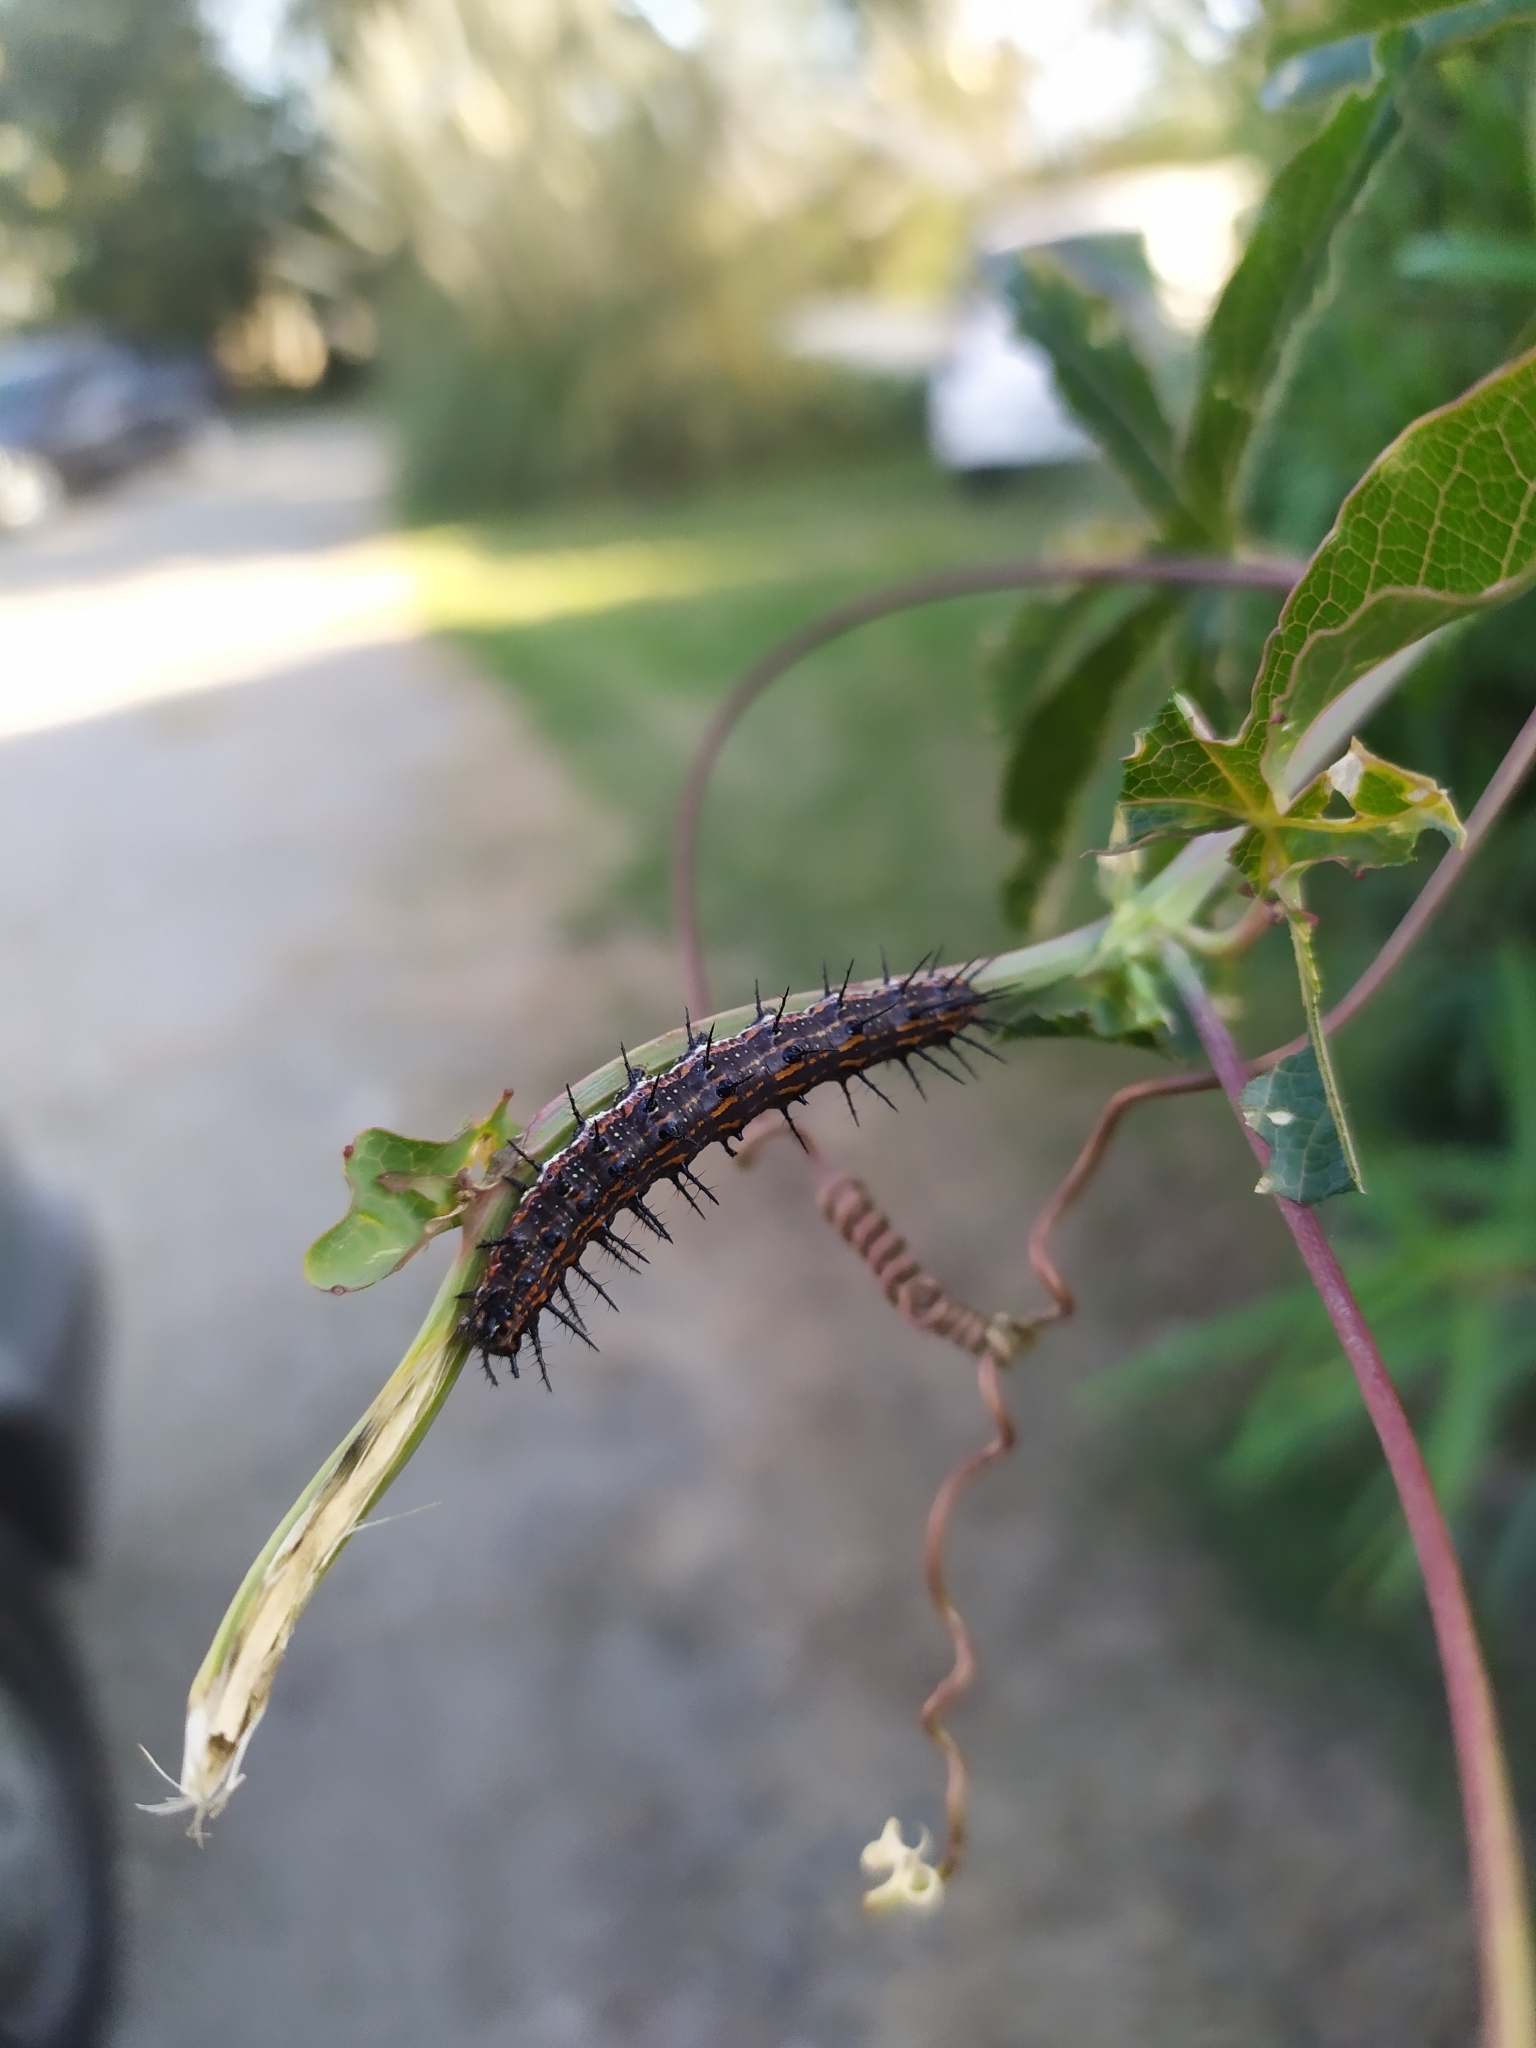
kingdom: Animalia
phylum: Arthropoda
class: Insecta
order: Lepidoptera
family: Nymphalidae
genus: Dione
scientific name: Dione vanillae
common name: Gulf fritillary
